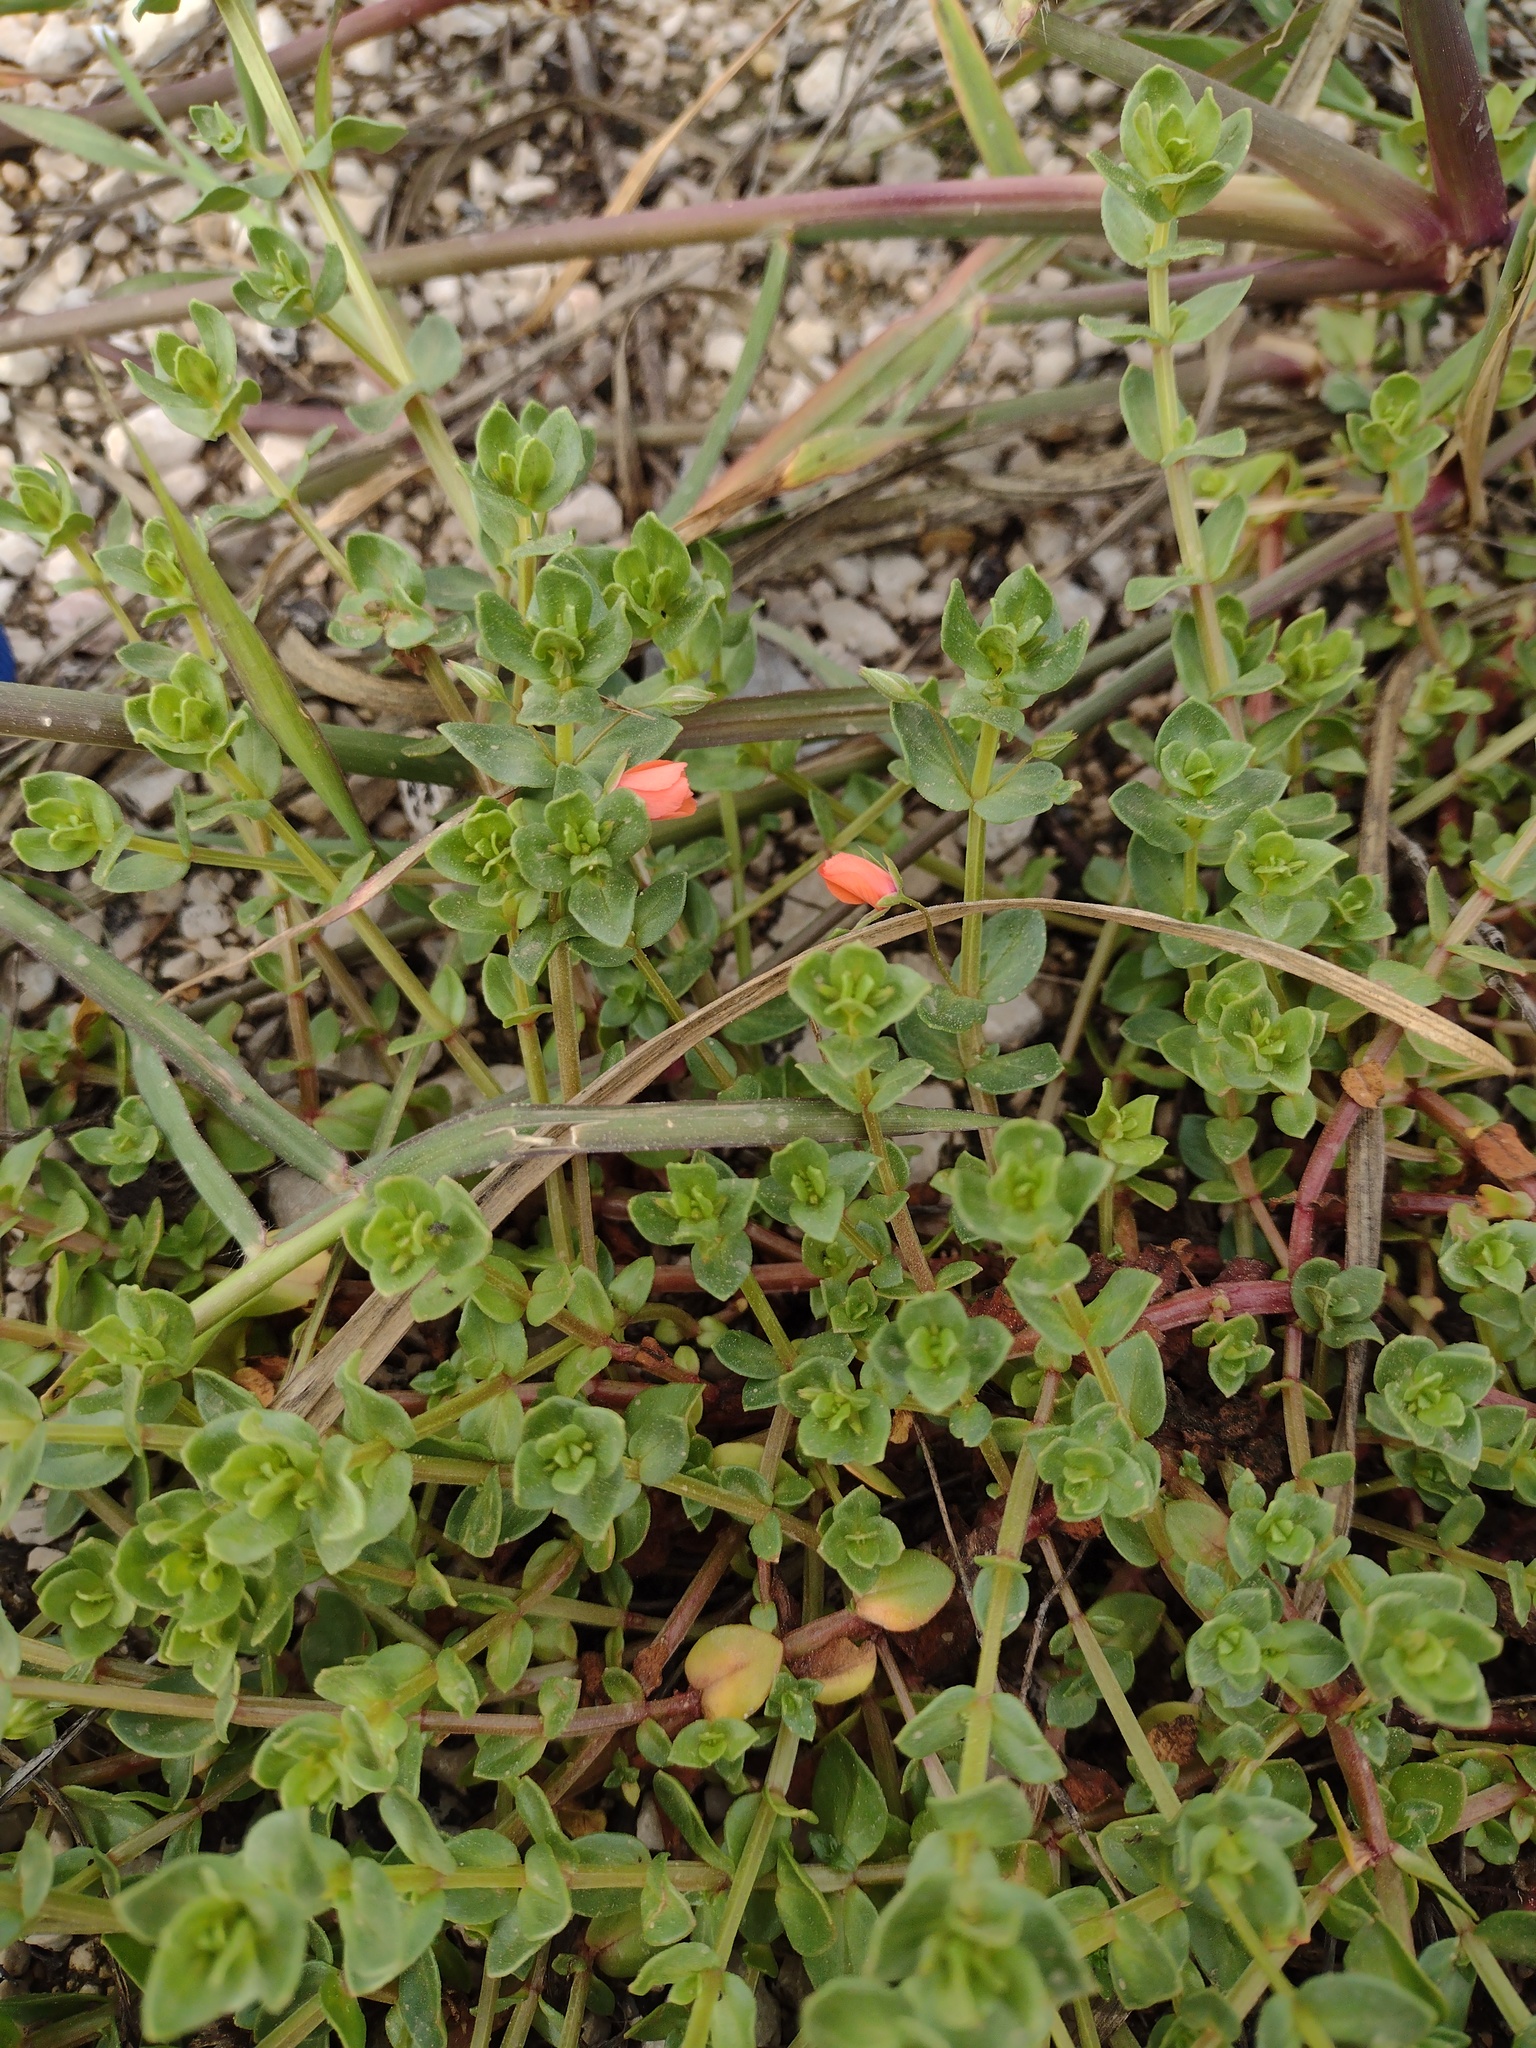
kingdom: Plantae
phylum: Tracheophyta
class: Magnoliopsida
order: Ericales
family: Primulaceae
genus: Lysimachia
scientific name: Lysimachia arvensis
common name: Scarlet pimpernel
